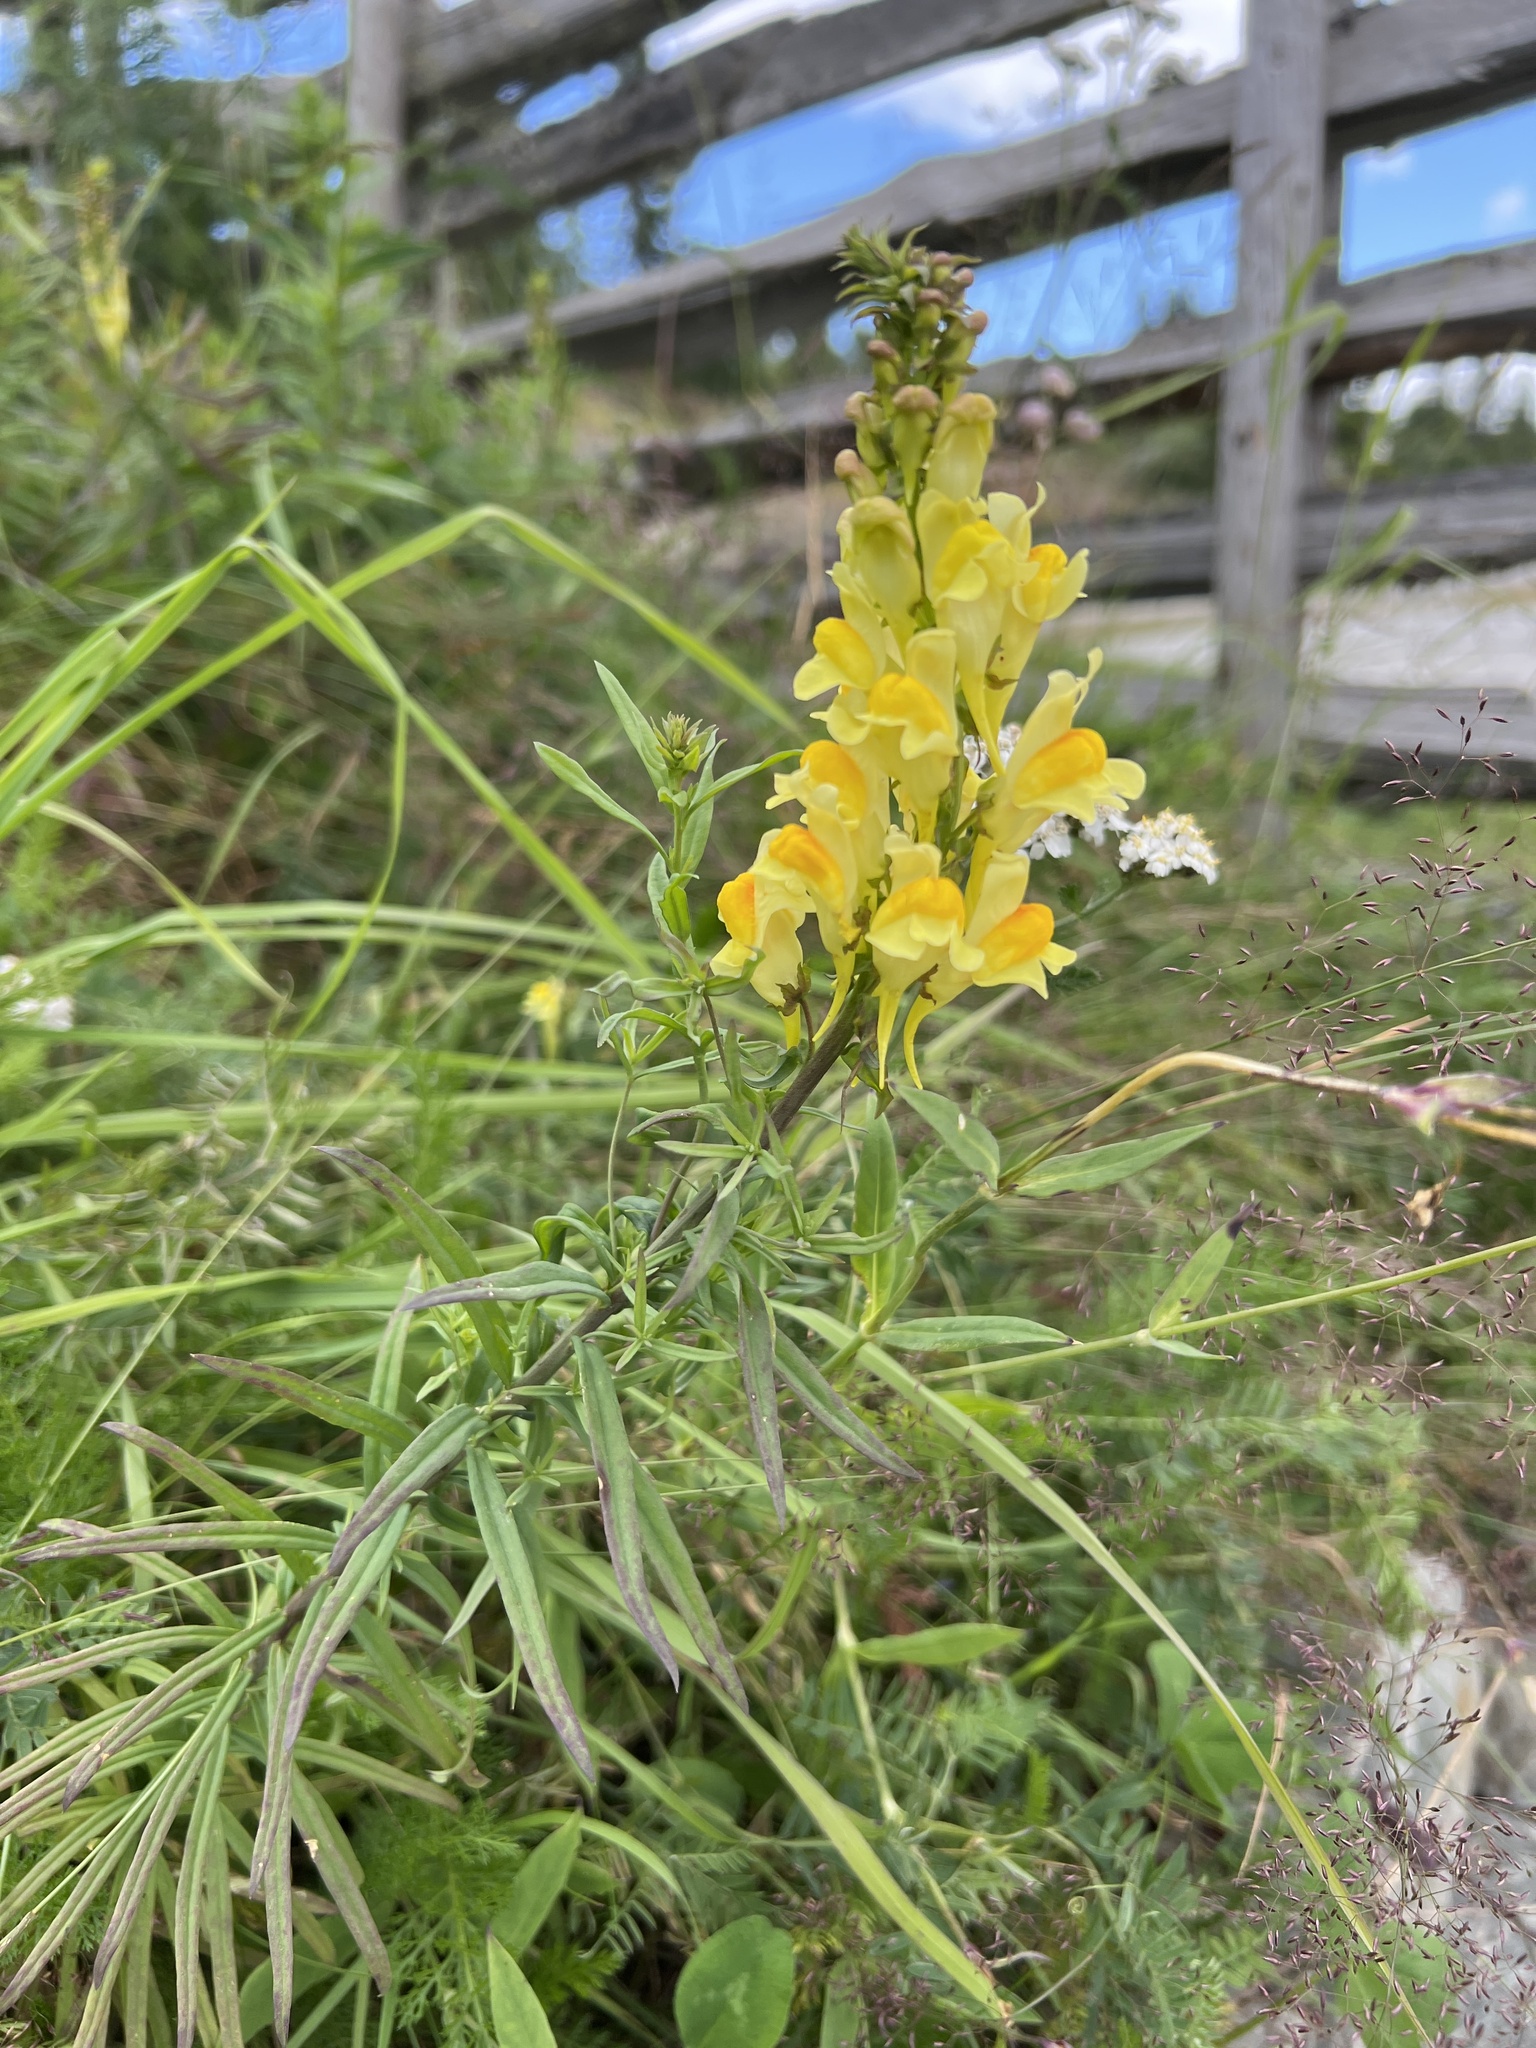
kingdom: Plantae
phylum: Tracheophyta
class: Magnoliopsida
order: Lamiales
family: Plantaginaceae
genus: Linaria
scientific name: Linaria vulgaris
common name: Butter and eggs
